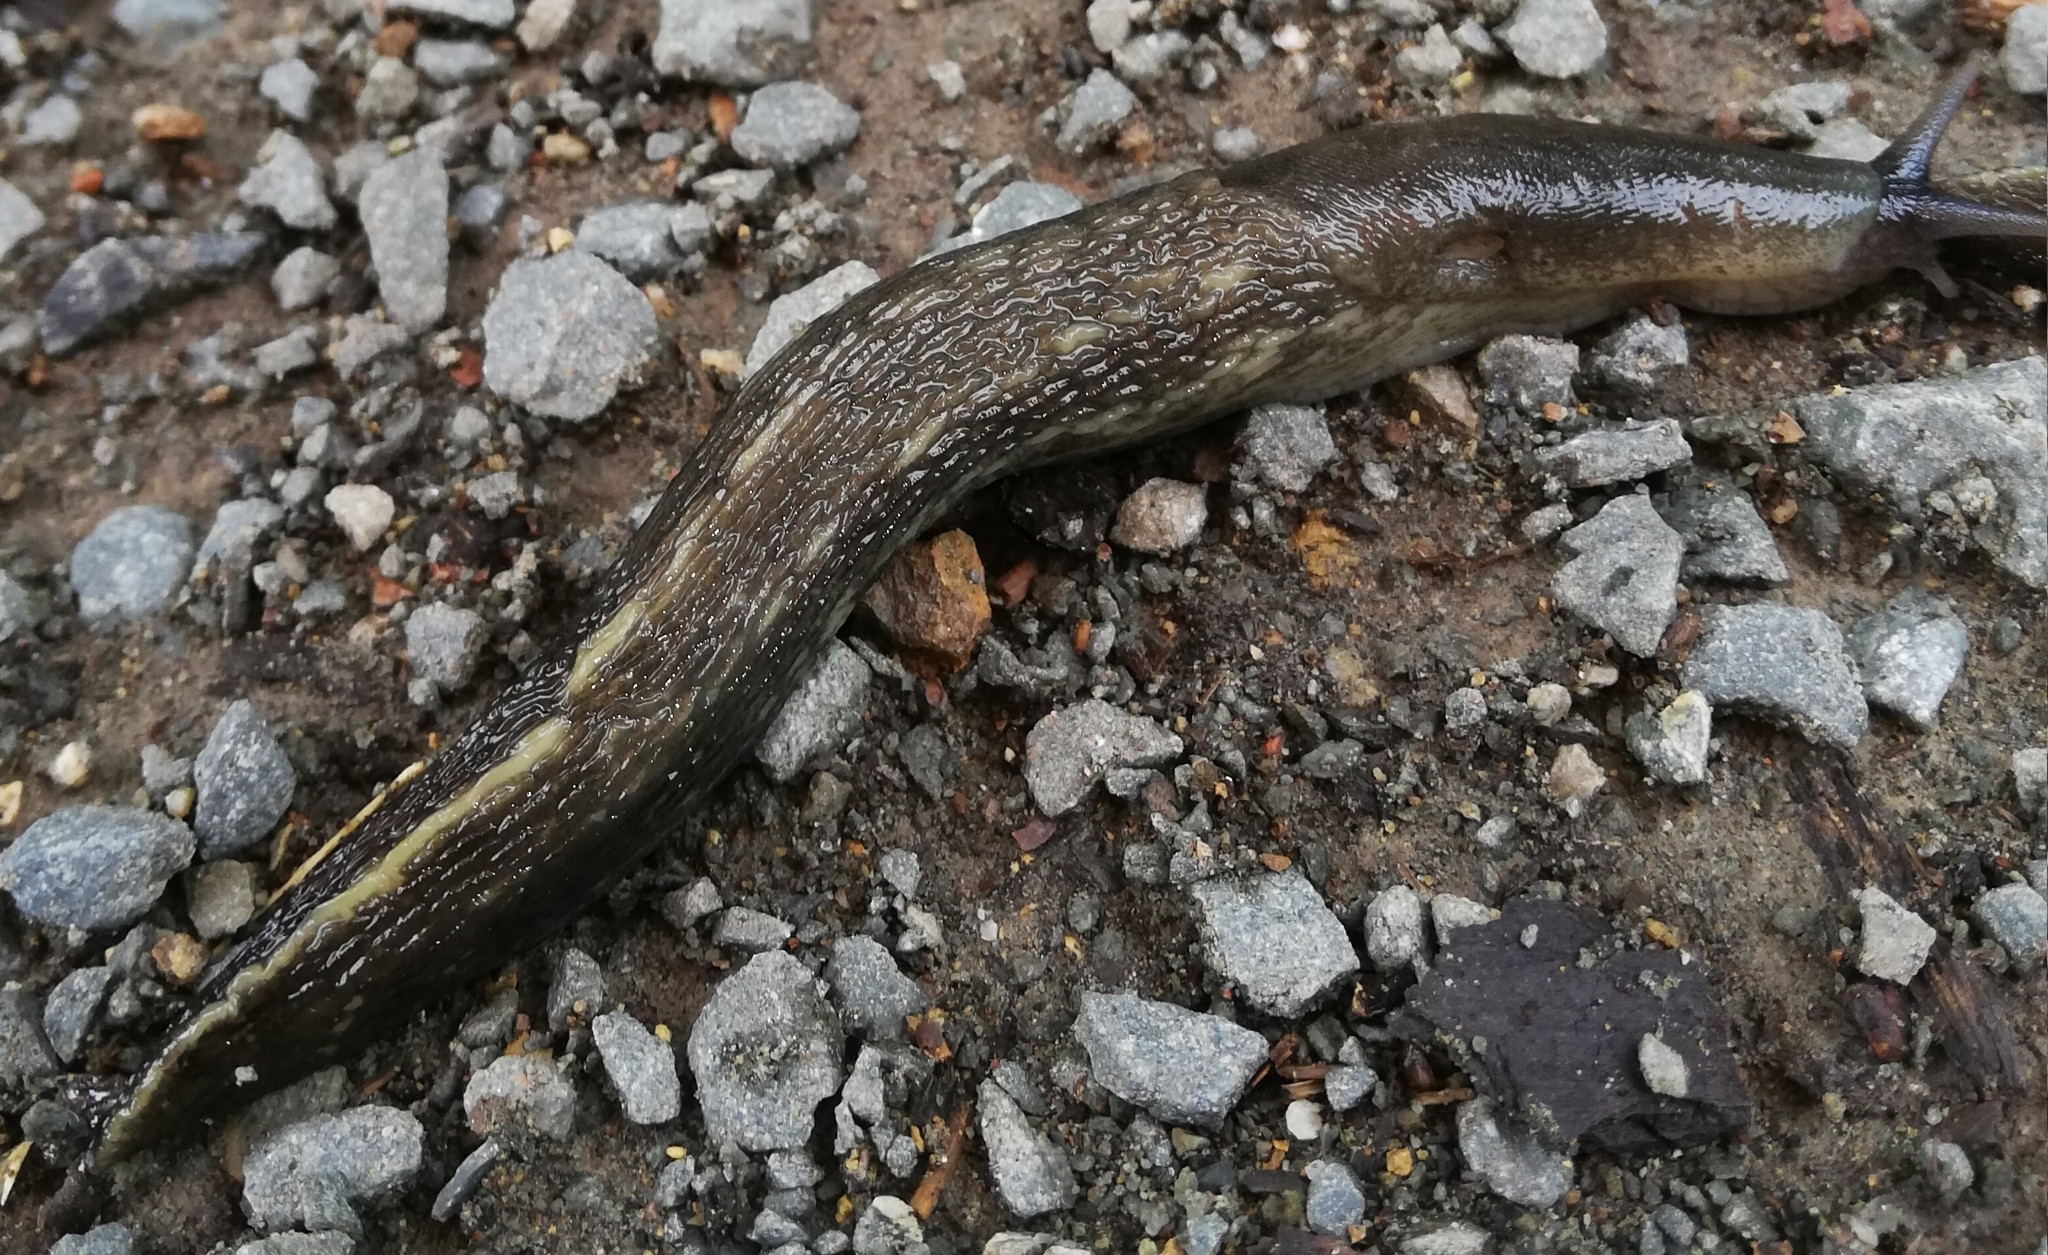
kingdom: Animalia
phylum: Mollusca
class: Gastropoda
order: Stylommatophora
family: Limacidae
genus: Limax
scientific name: Limax cinereoniger
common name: Ash-black slug
